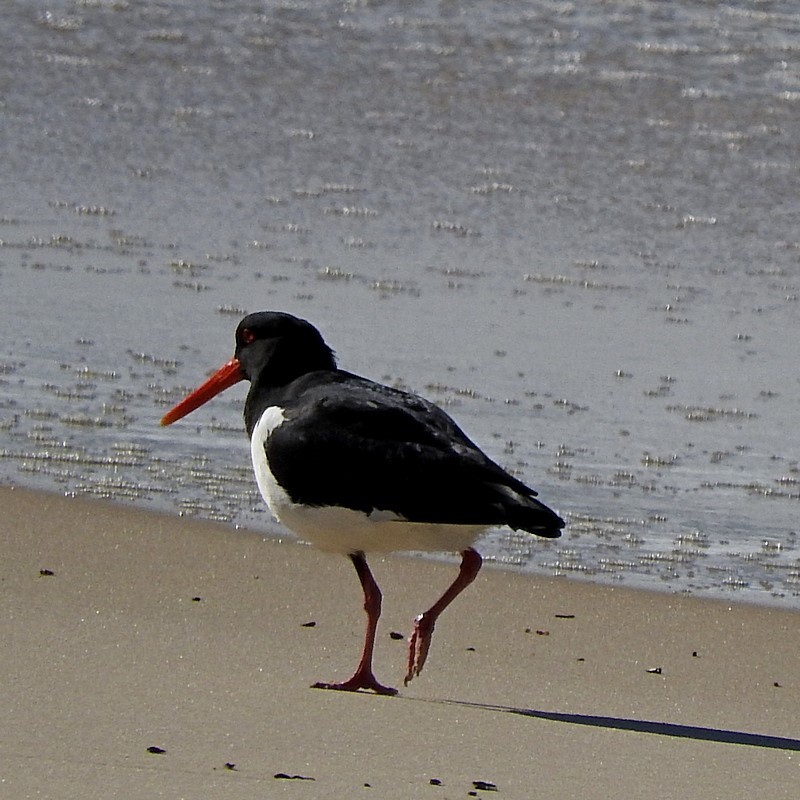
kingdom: Animalia
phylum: Chordata
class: Aves
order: Charadriiformes
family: Haematopodidae
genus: Haematopus
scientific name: Haematopus longirostris
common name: Pied oystercatcher
